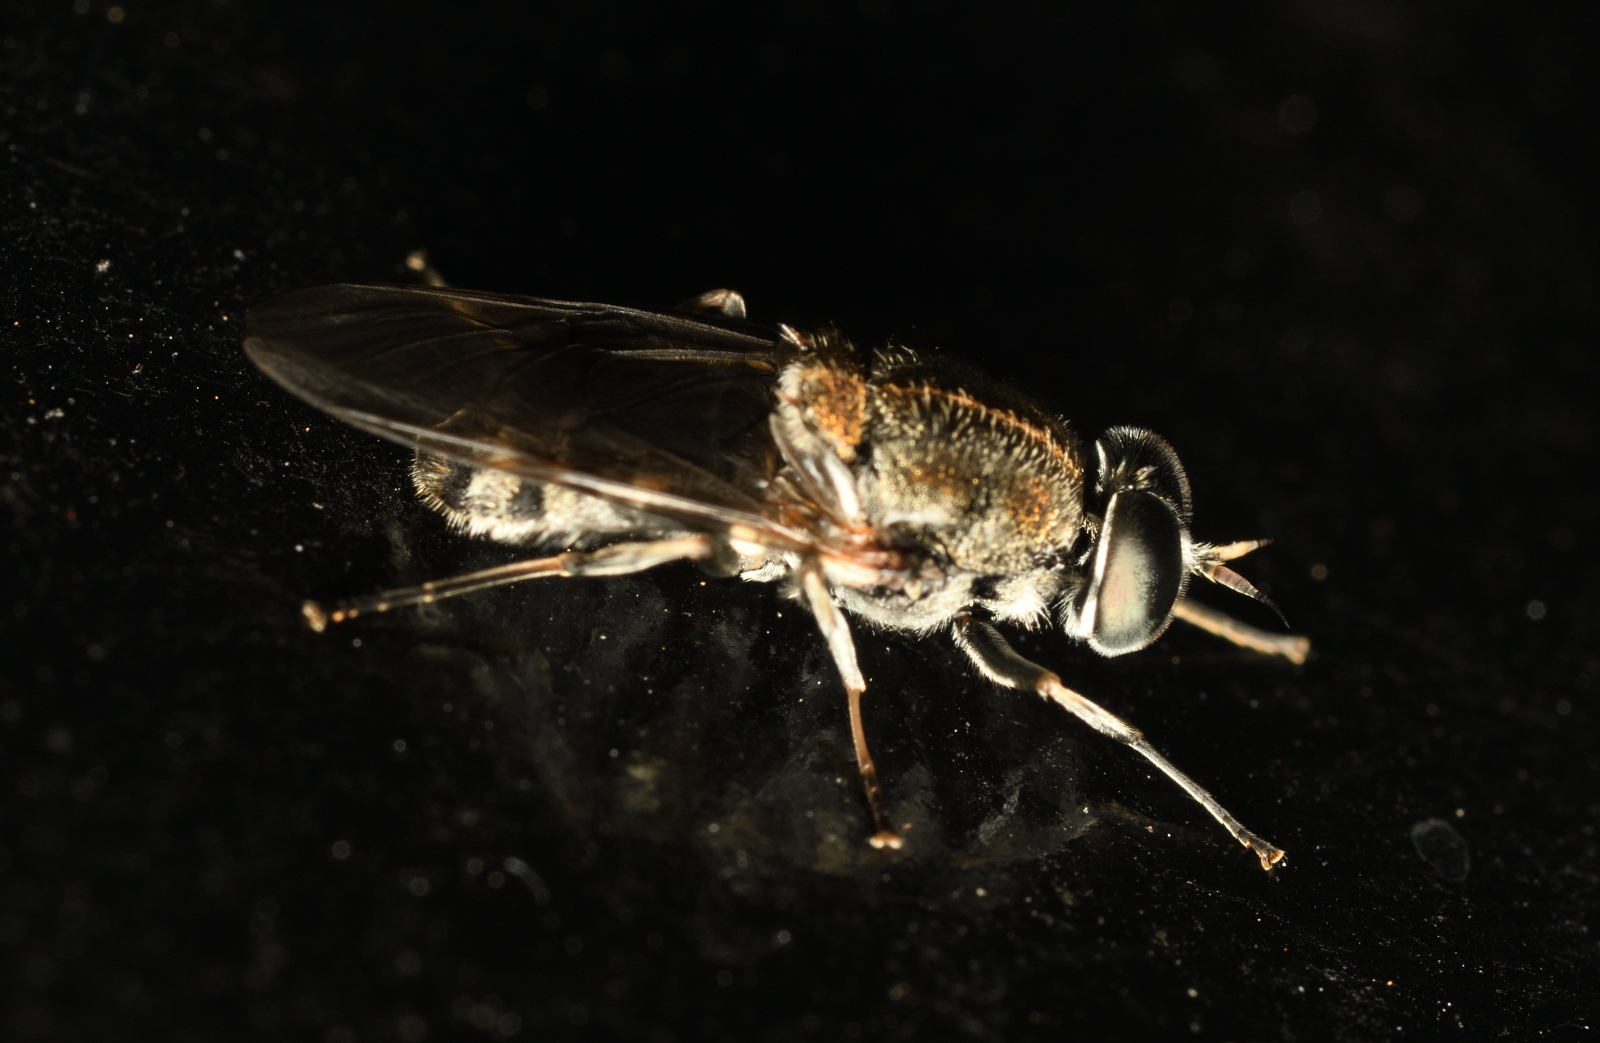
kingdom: Animalia
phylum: Arthropoda
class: Insecta
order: Diptera
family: Stratiomyidae
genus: Adoxomyia
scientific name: Adoxomyia heminopla
